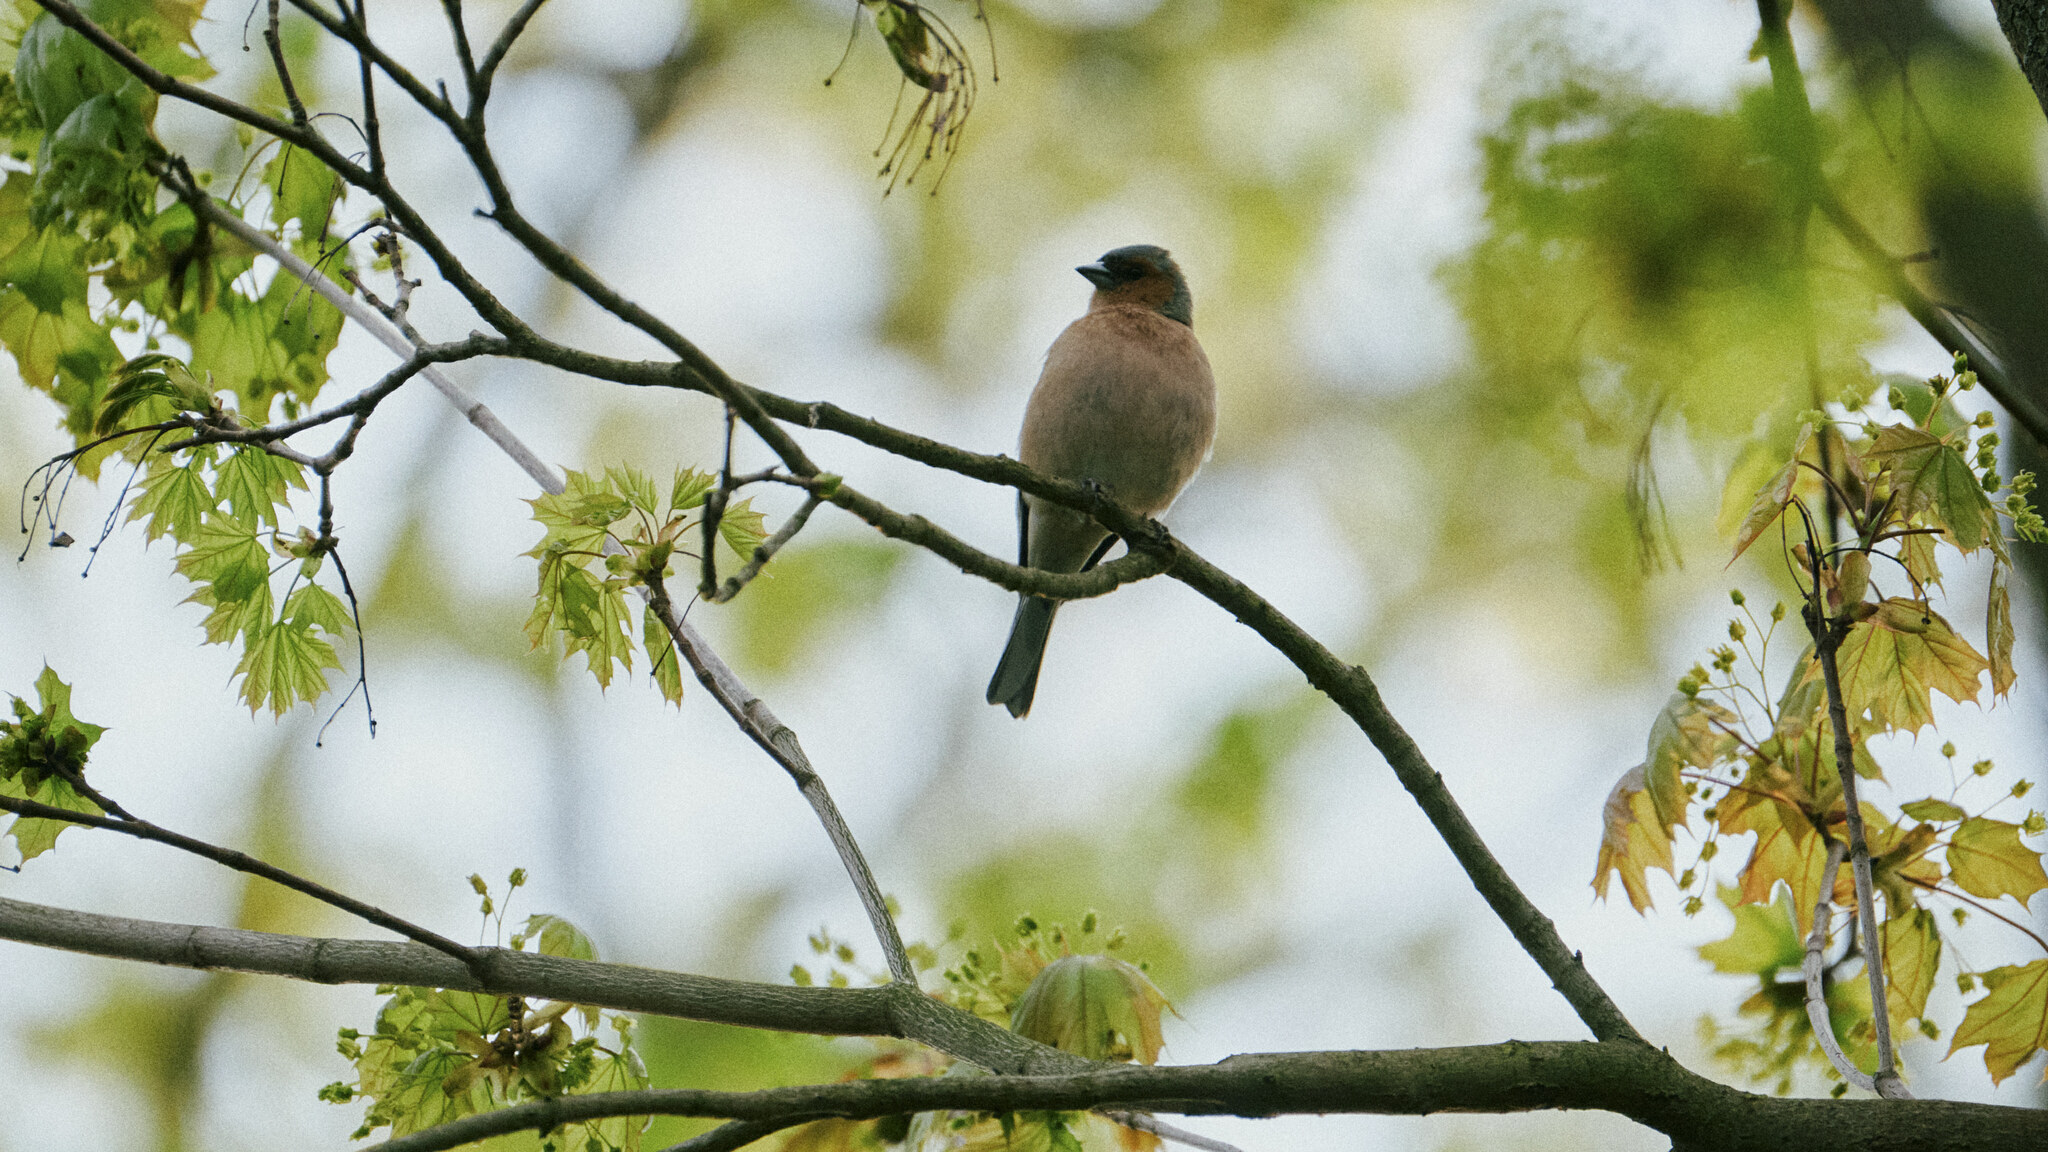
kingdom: Animalia
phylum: Chordata
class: Aves
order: Passeriformes
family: Fringillidae
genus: Fringilla
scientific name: Fringilla coelebs
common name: Common chaffinch
